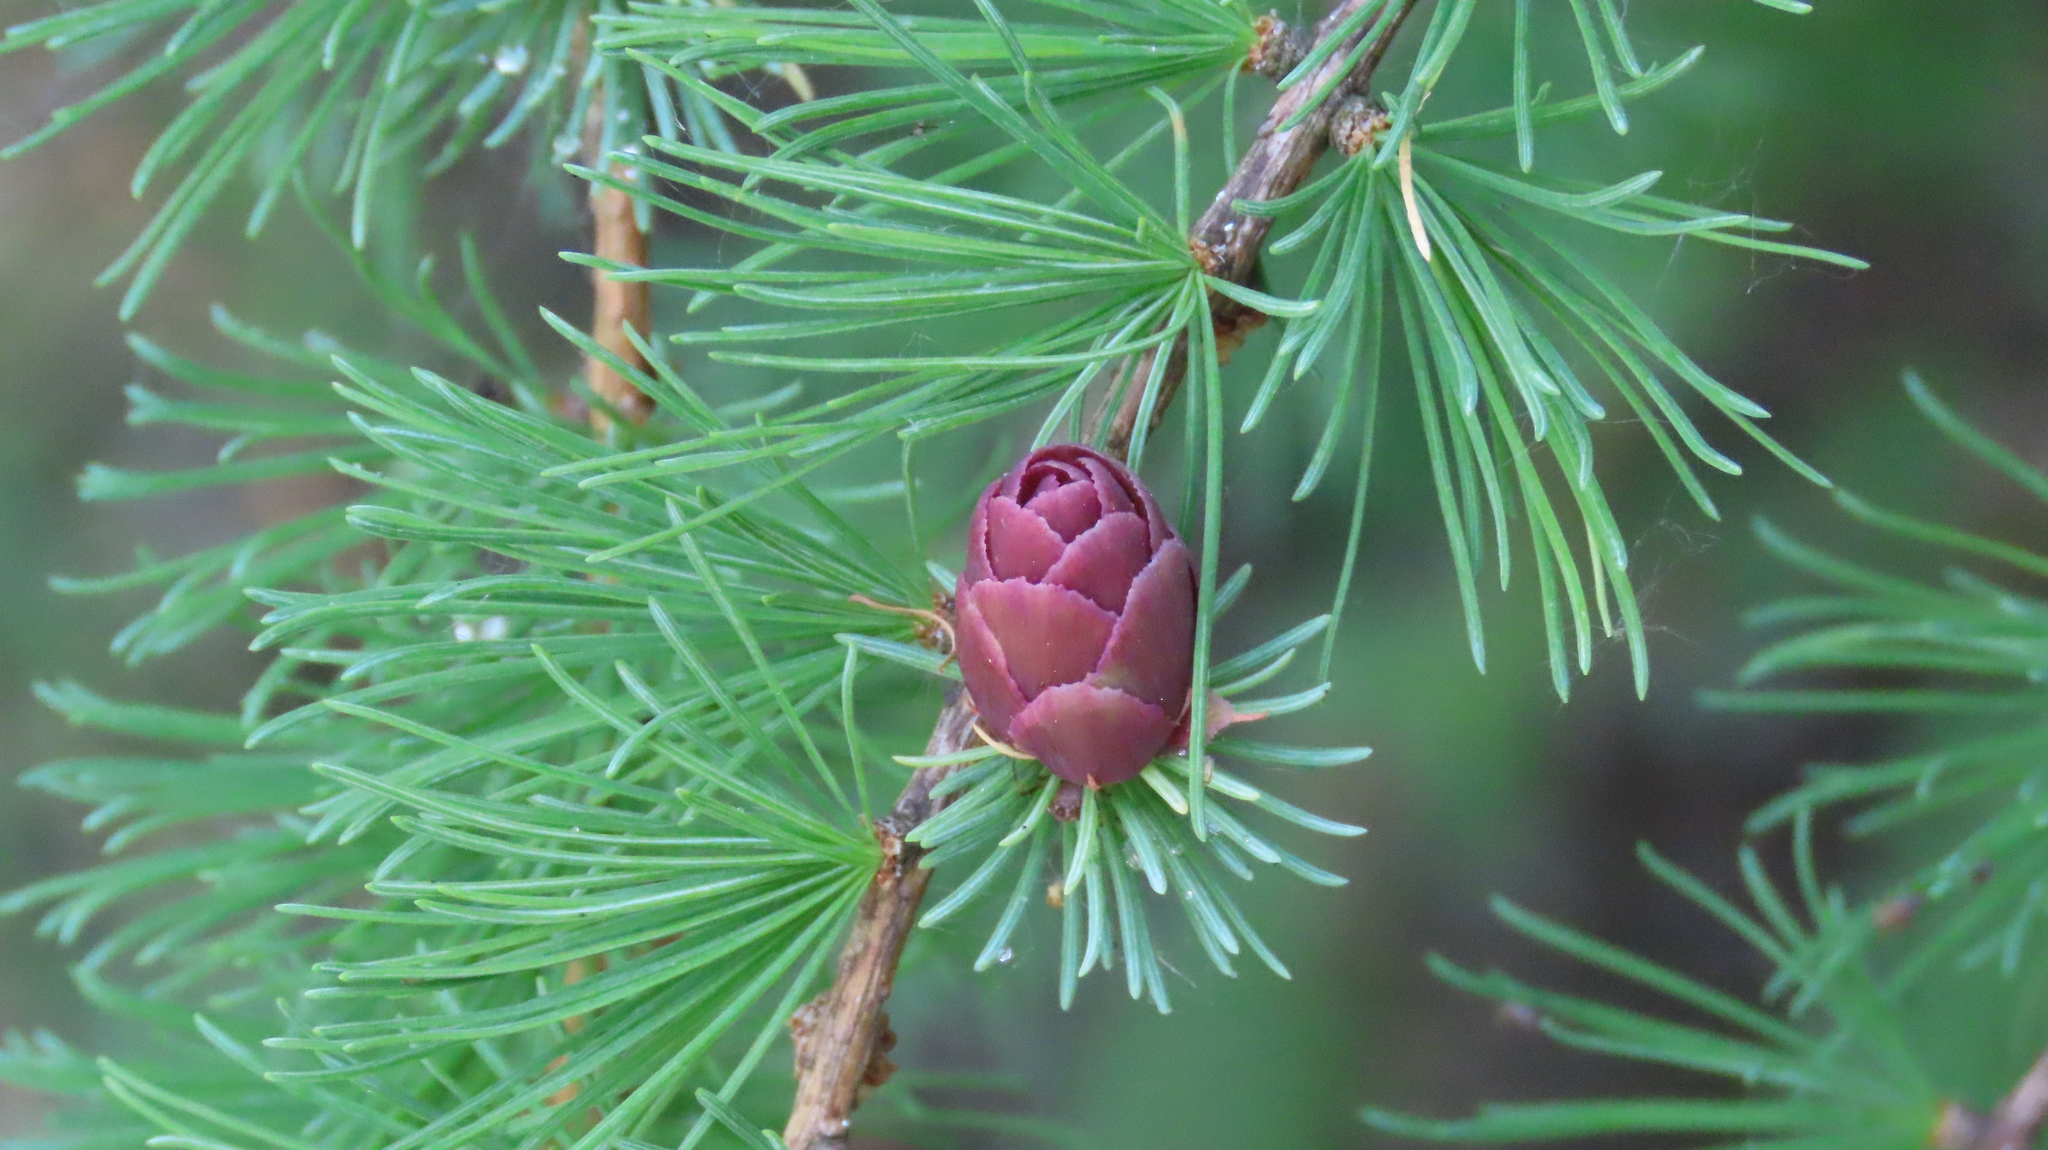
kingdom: Plantae
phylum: Tracheophyta
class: Pinopsida
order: Pinales
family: Pinaceae
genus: Larix
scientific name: Larix laricina
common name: American larch
